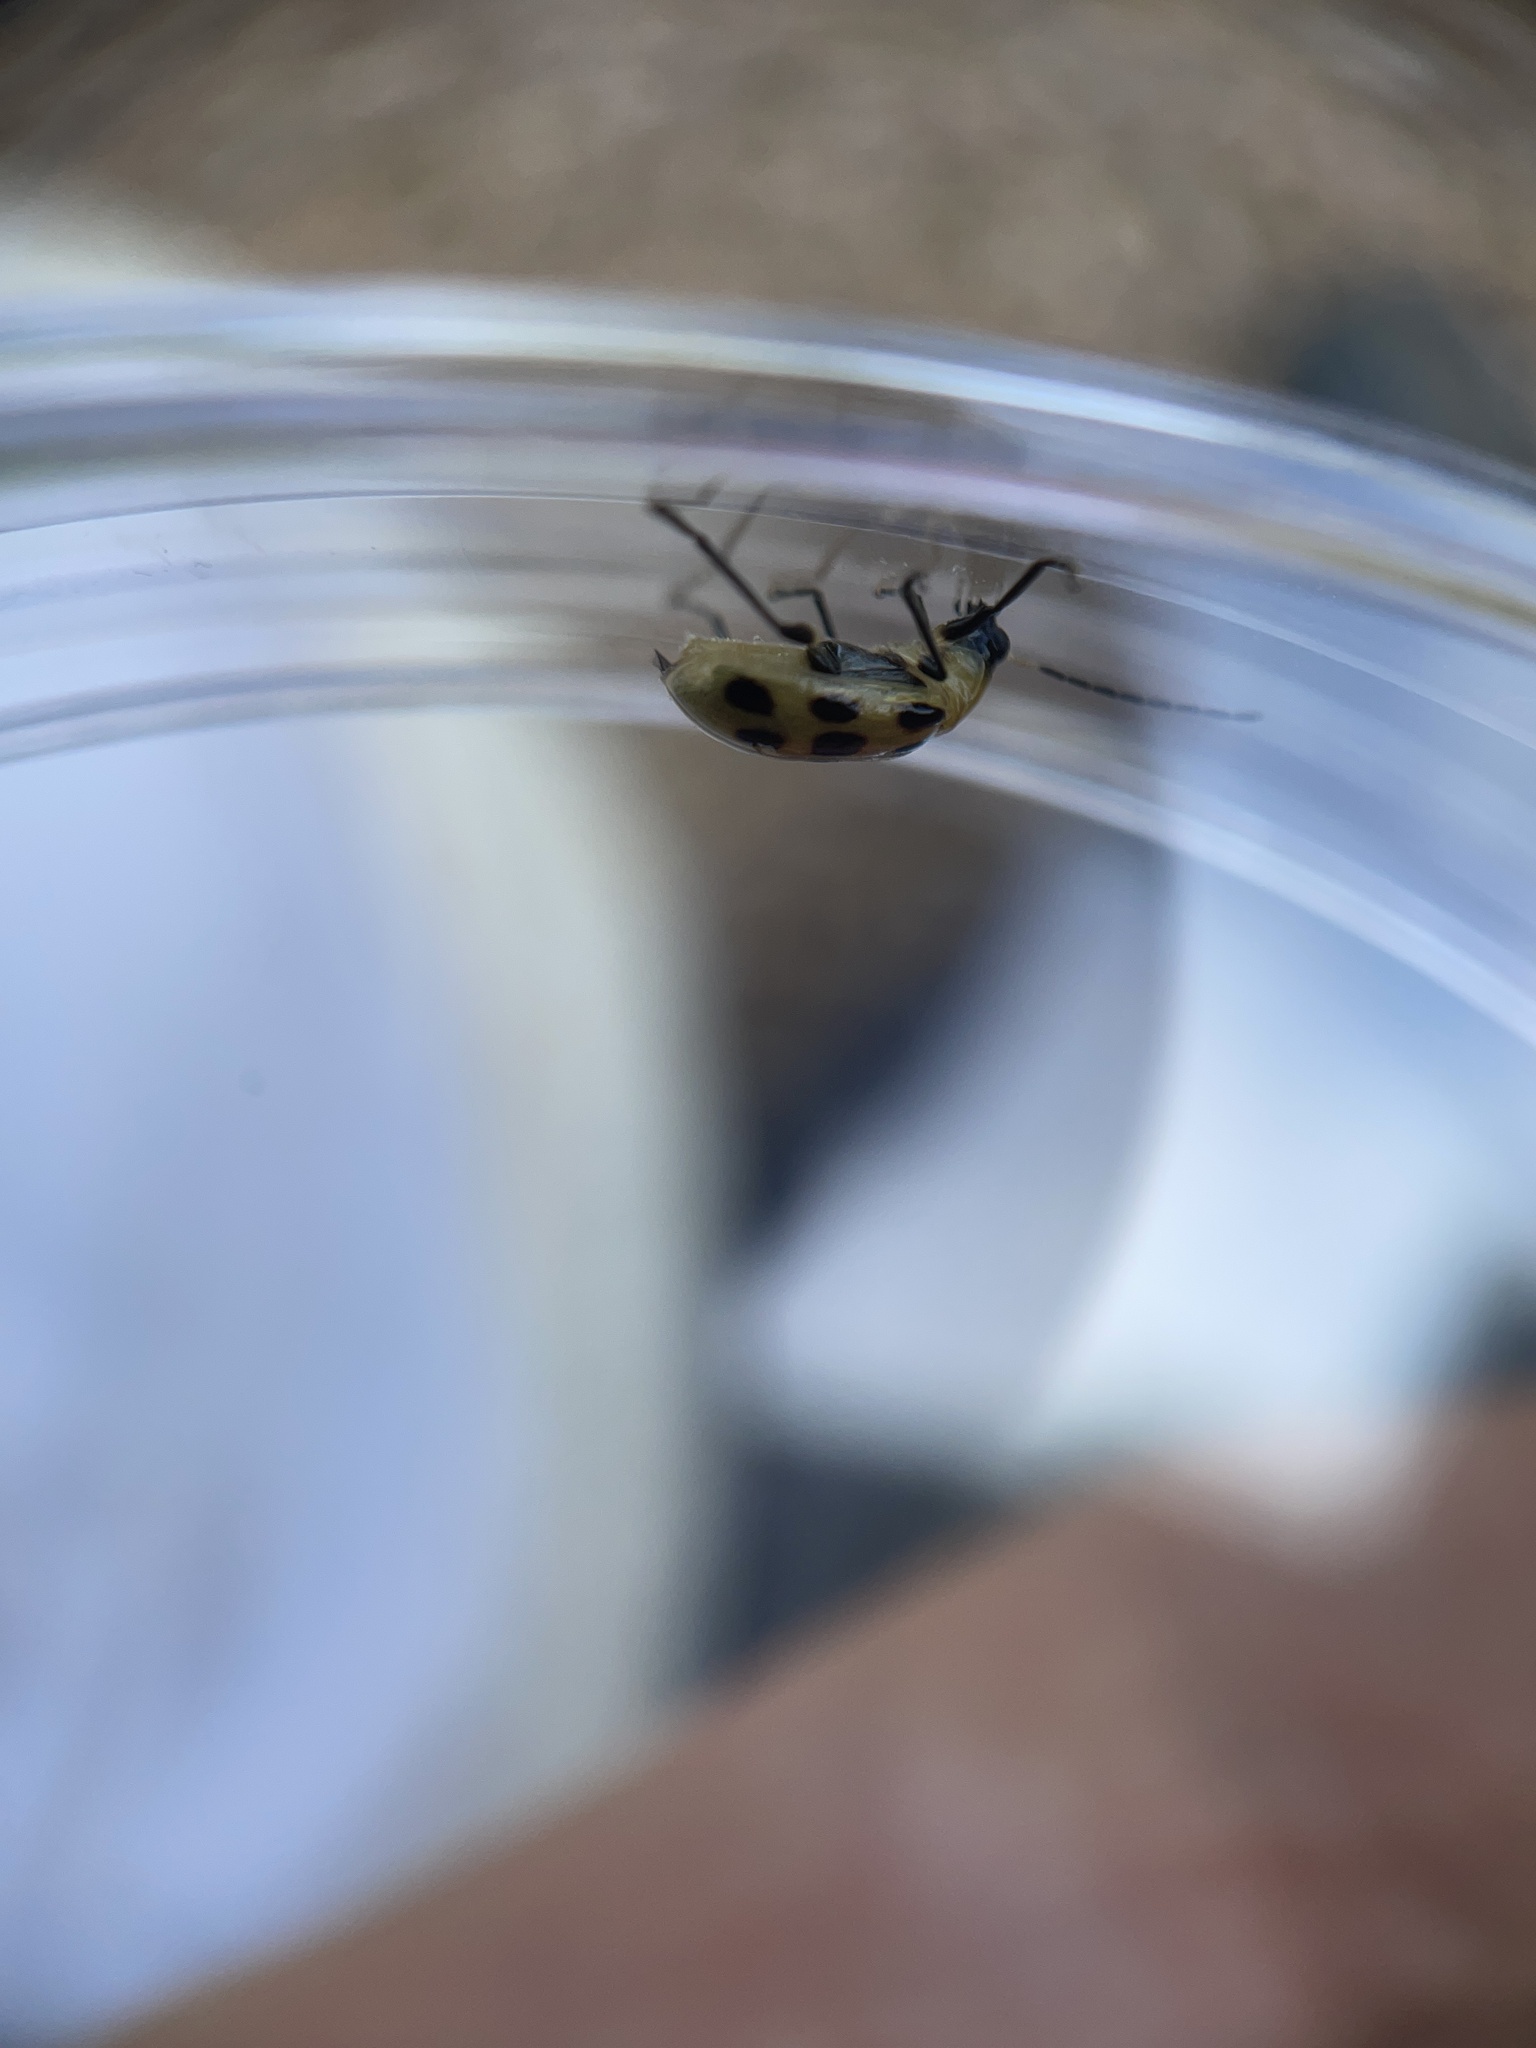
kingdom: Animalia
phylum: Arthropoda
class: Insecta
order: Coleoptera
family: Chrysomelidae
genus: Diabrotica
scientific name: Diabrotica undecimpunctata
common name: Spotted cucumber beetle
